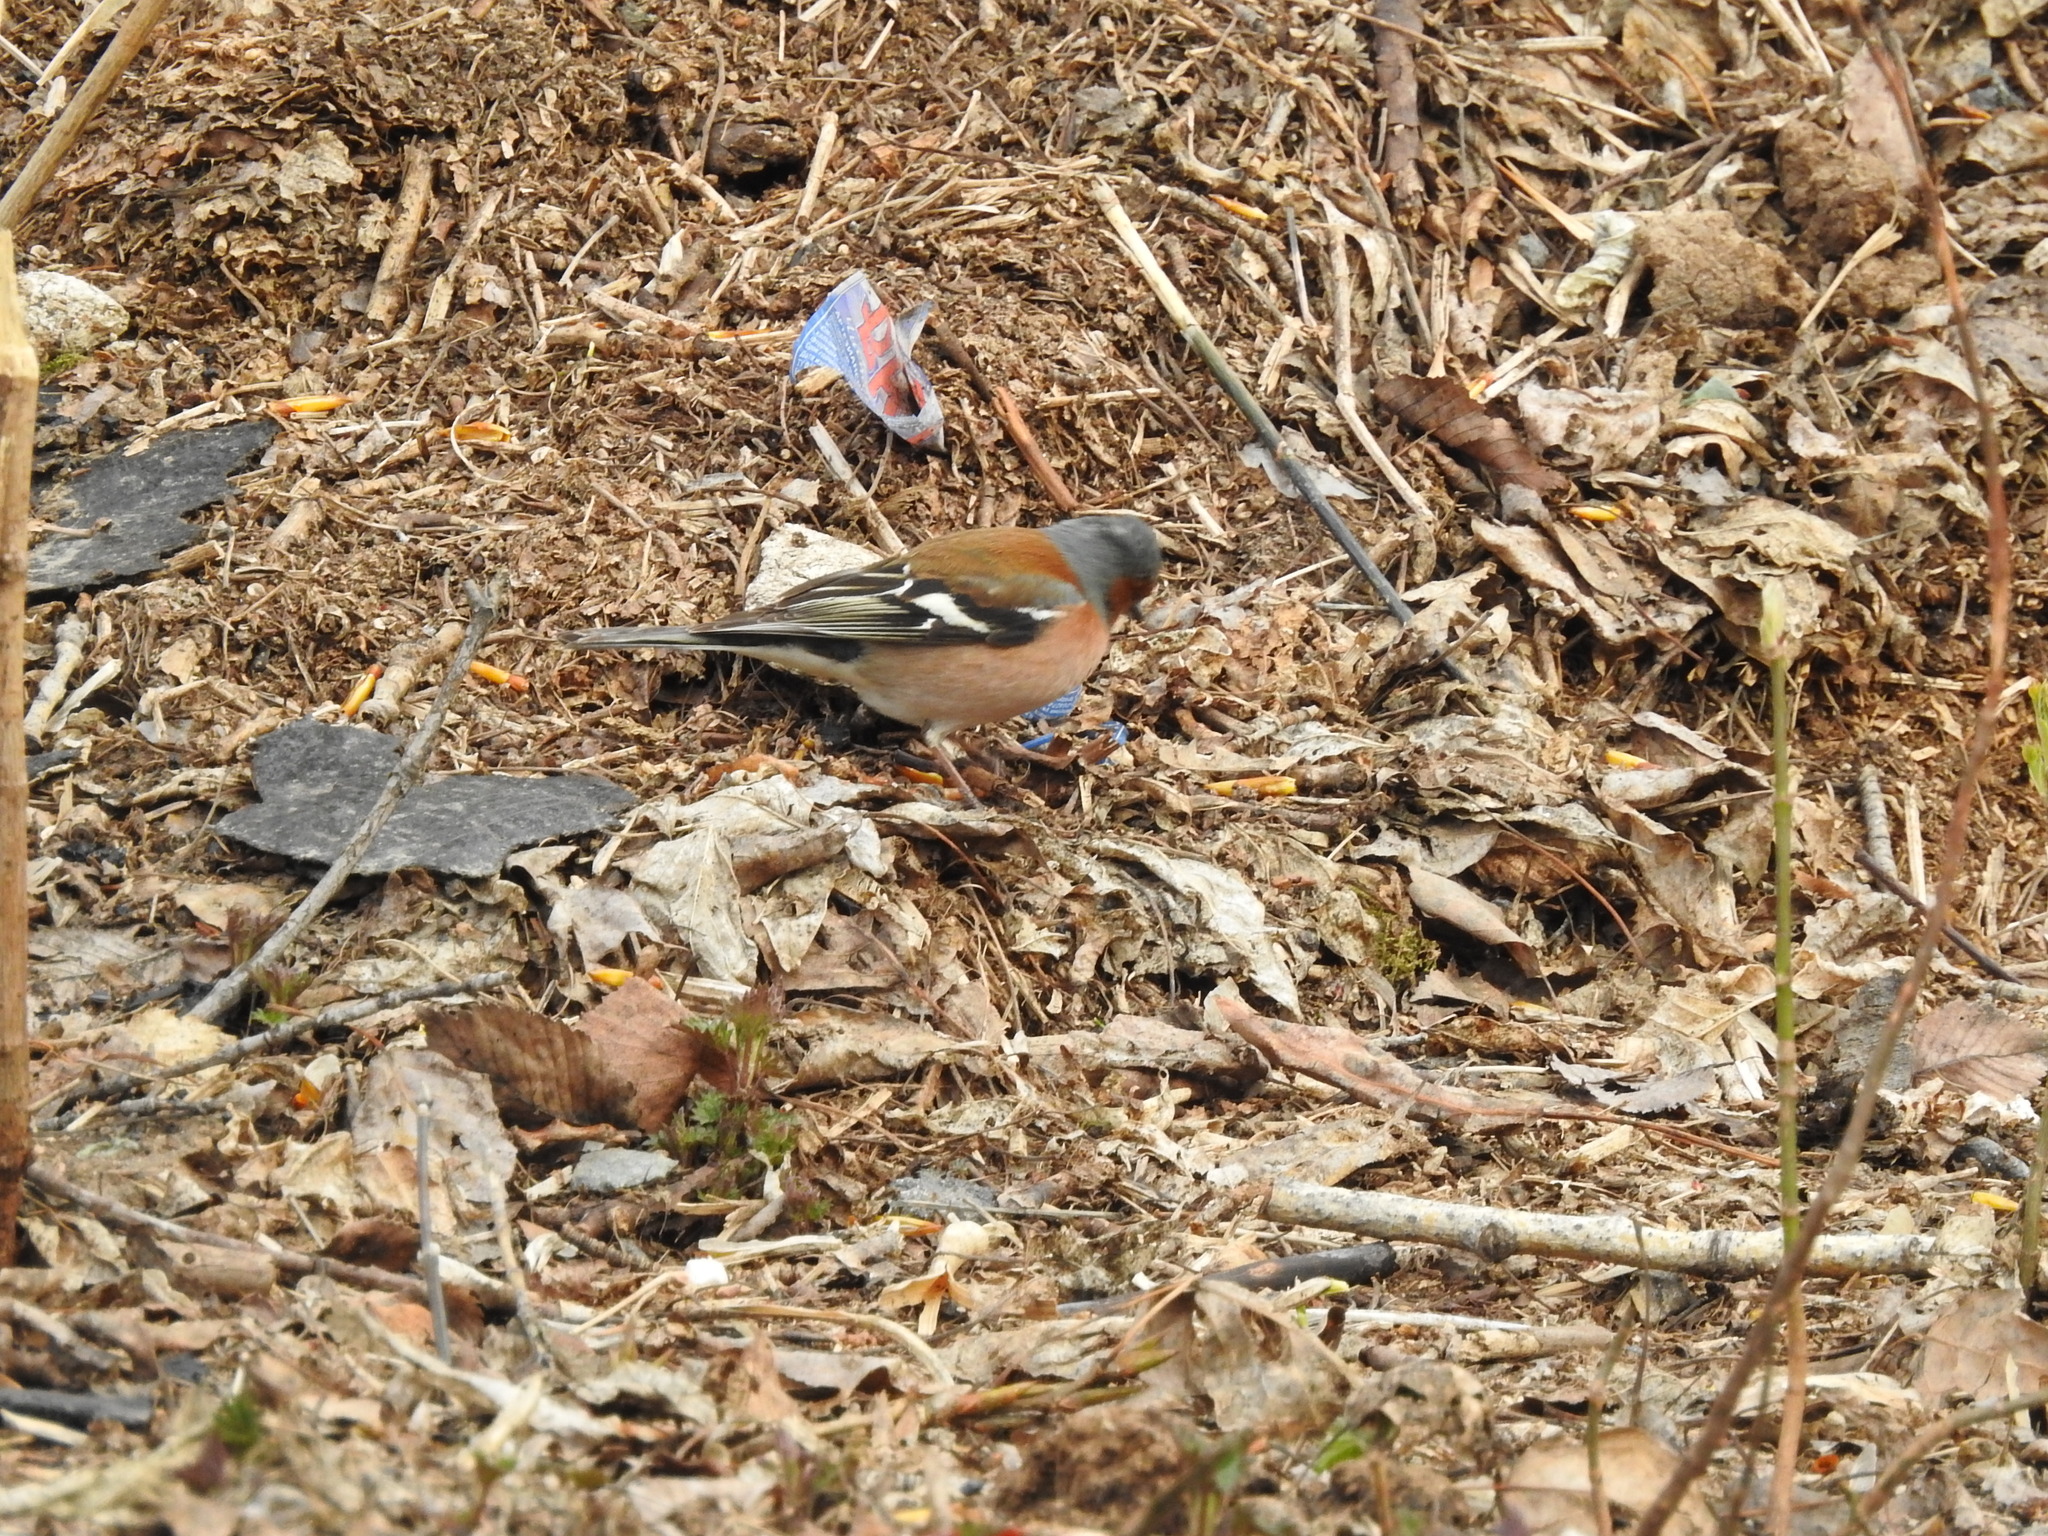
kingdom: Animalia
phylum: Chordata
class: Aves
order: Passeriformes
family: Fringillidae
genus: Fringilla
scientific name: Fringilla coelebs
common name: Common chaffinch
